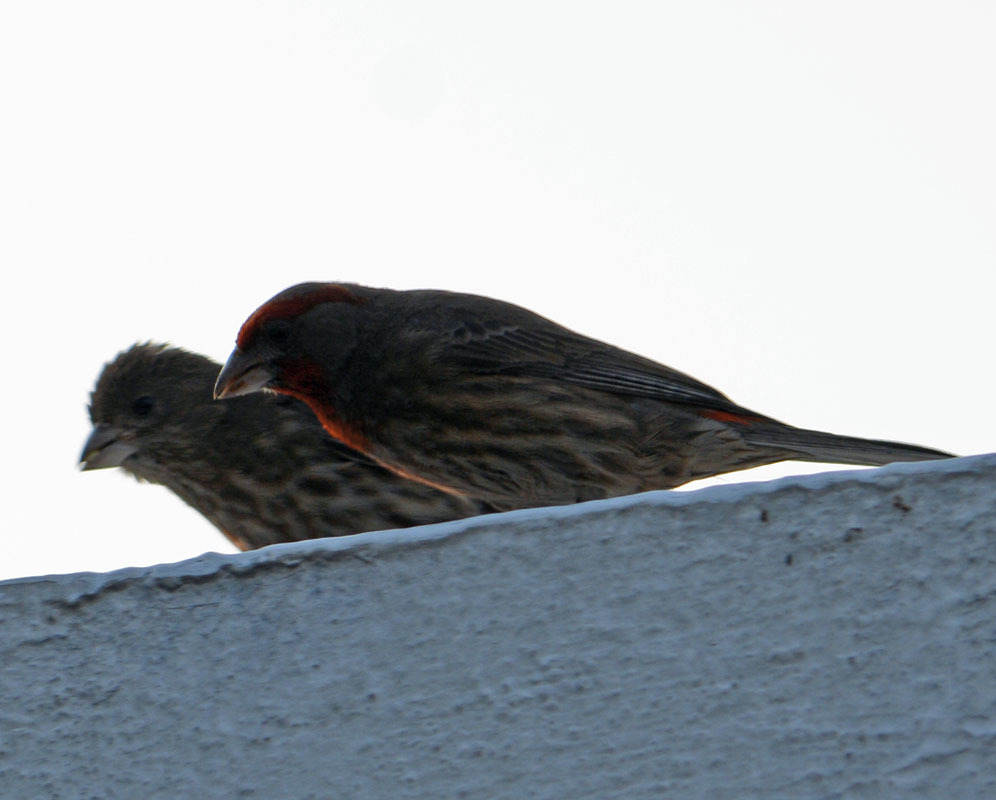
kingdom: Animalia
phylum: Chordata
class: Aves
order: Passeriformes
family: Fringillidae
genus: Haemorhous
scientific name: Haemorhous mexicanus
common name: House finch
